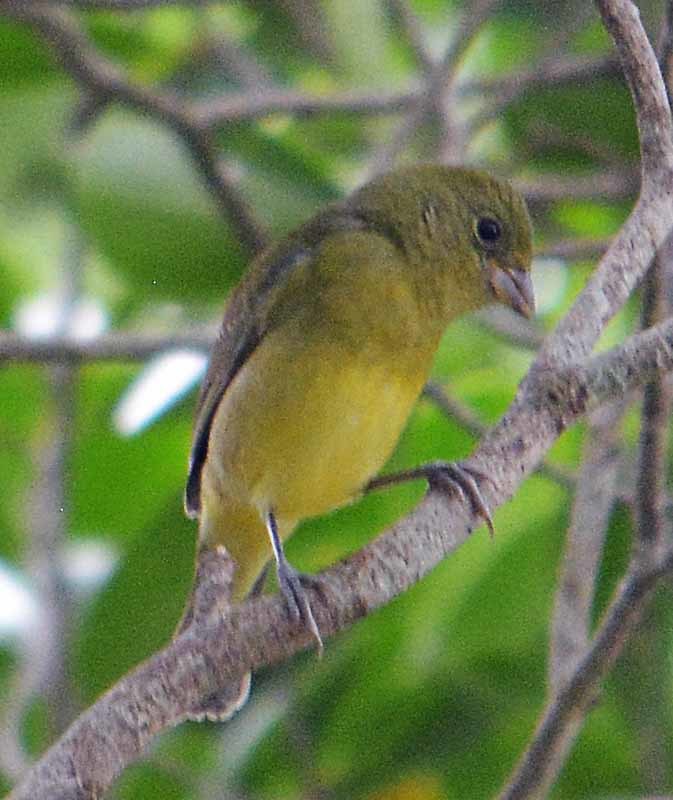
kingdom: Animalia
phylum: Chordata
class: Aves
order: Passeriformes
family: Cardinalidae
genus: Passerina
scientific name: Passerina ciris
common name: Painted bunting
